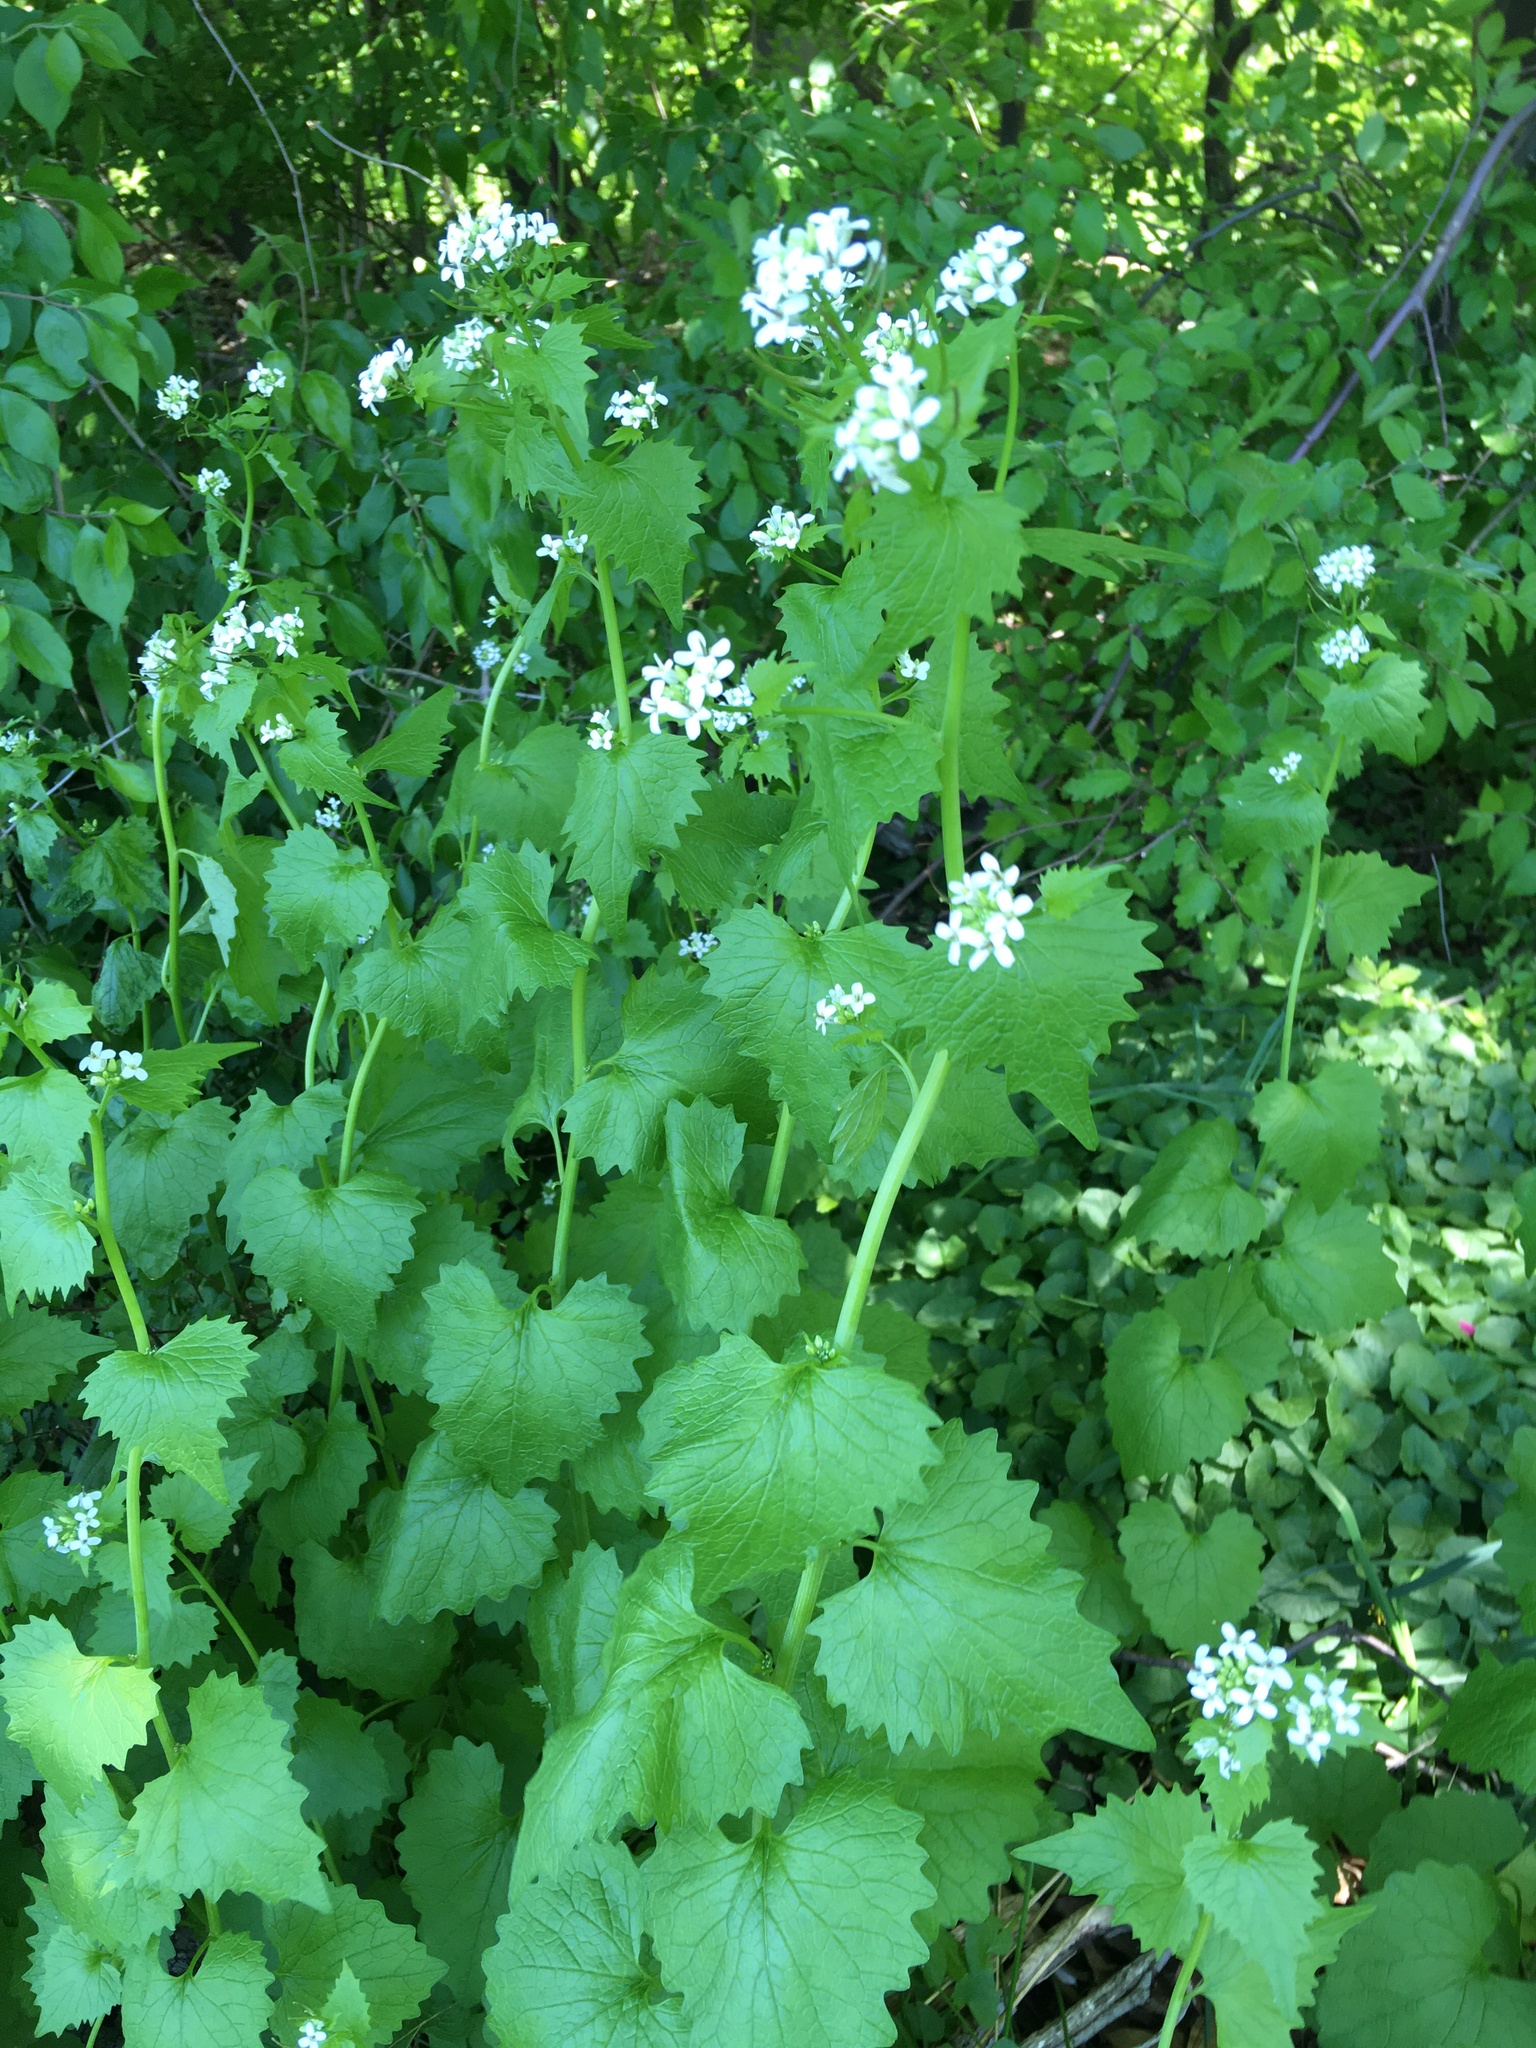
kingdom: Plantae
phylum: Tracheophyta
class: Magnoliopsida
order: Brassicales
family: Brassicaceae
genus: Alliaria
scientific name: Alliaria petiolata
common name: Garlic mustard
